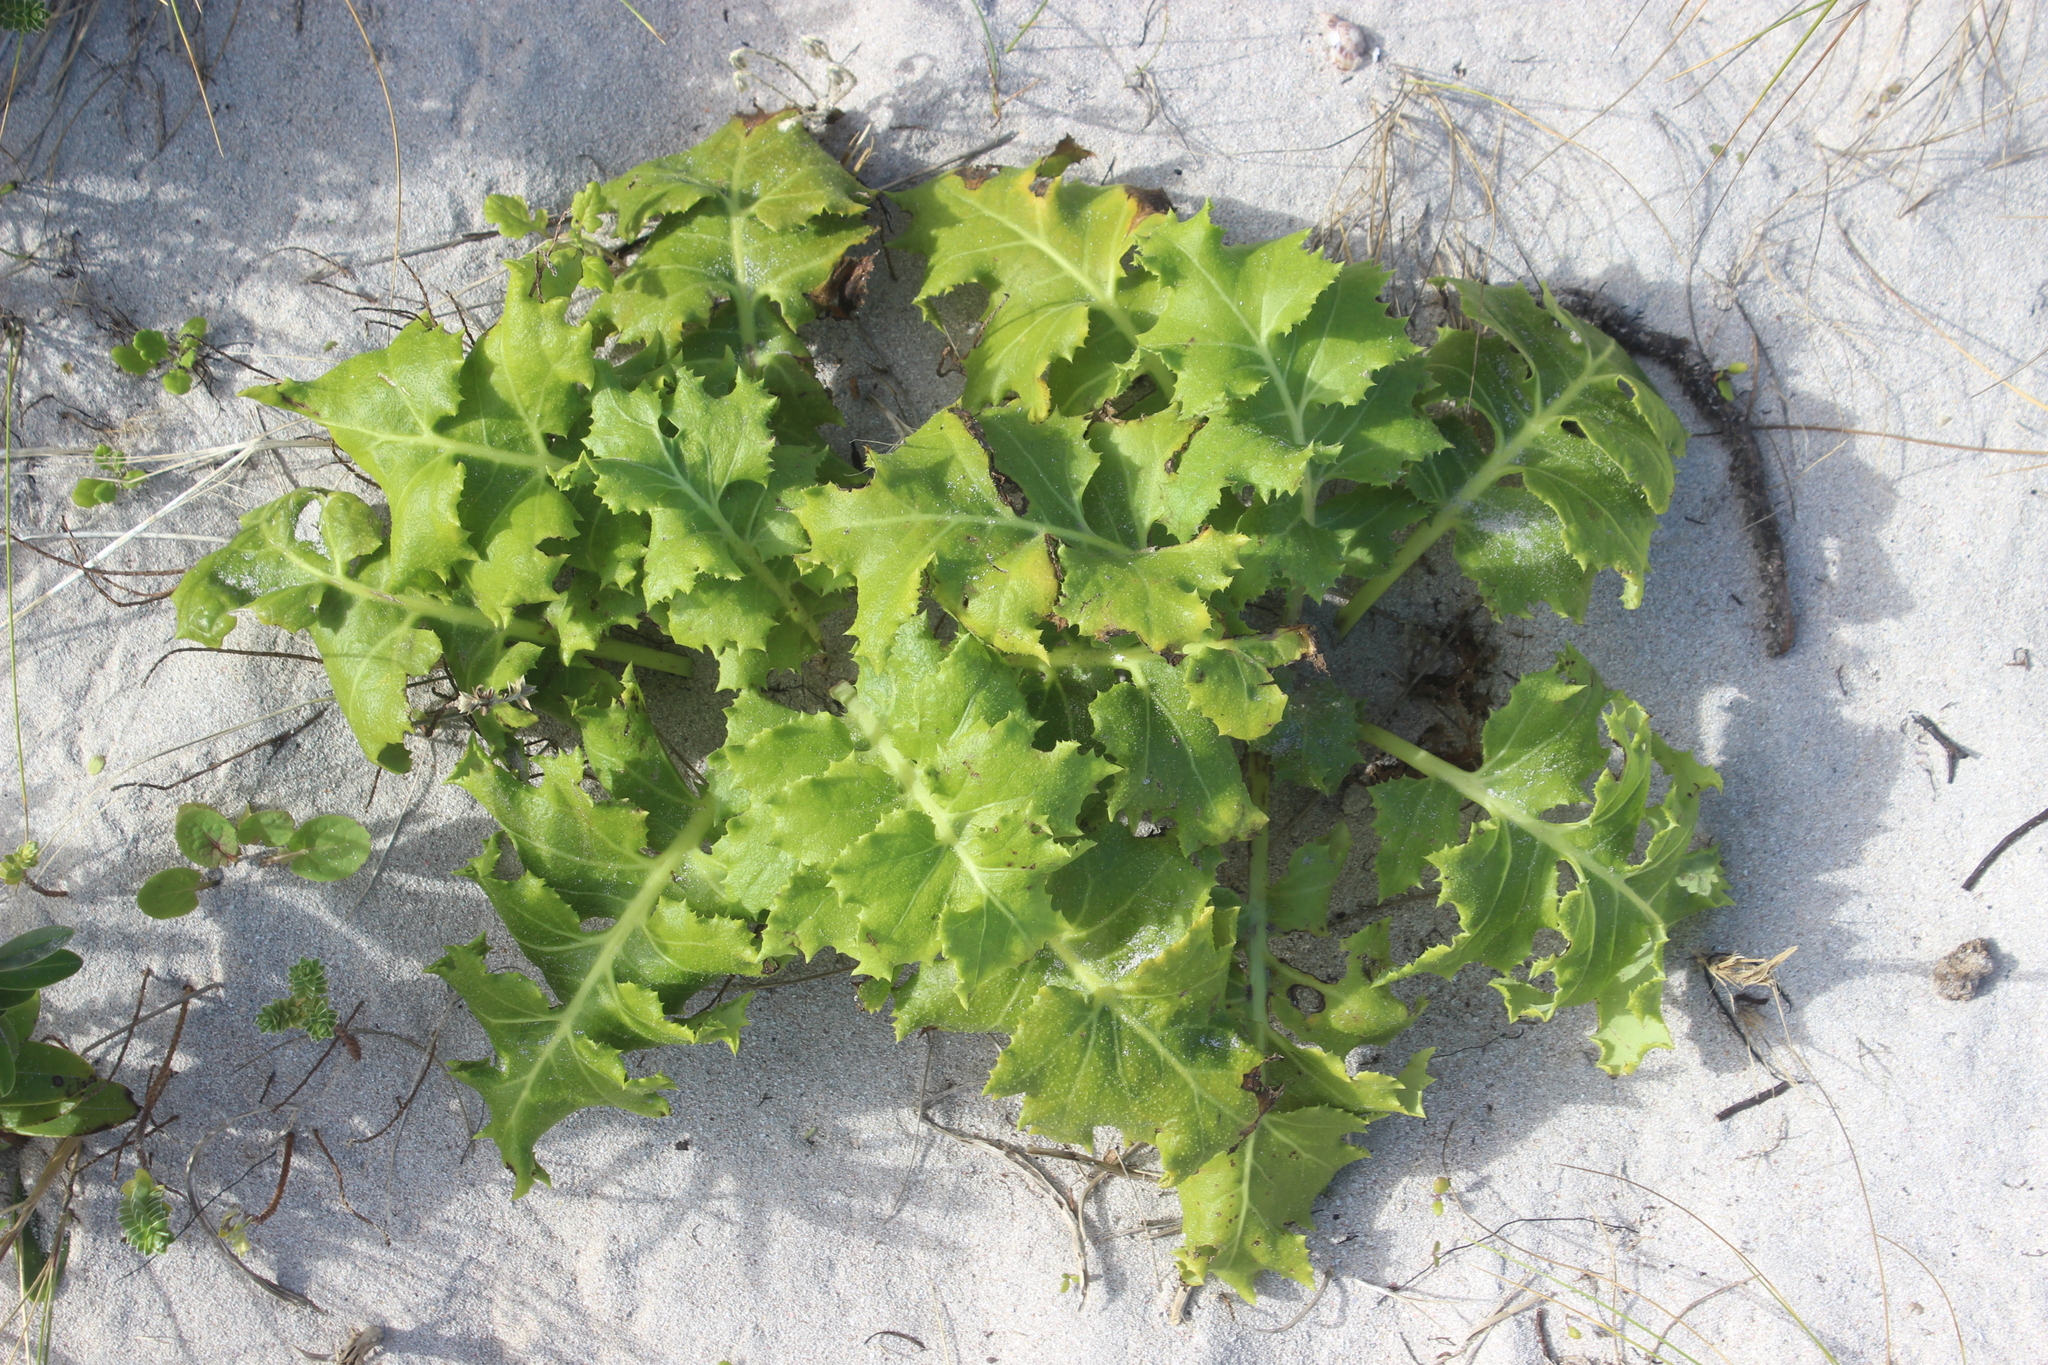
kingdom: Plantae
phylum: Tracheophyta
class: Magnoliopsida
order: Asterales
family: Asteraceae
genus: Sonchus
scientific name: Sonchus grandifolius
